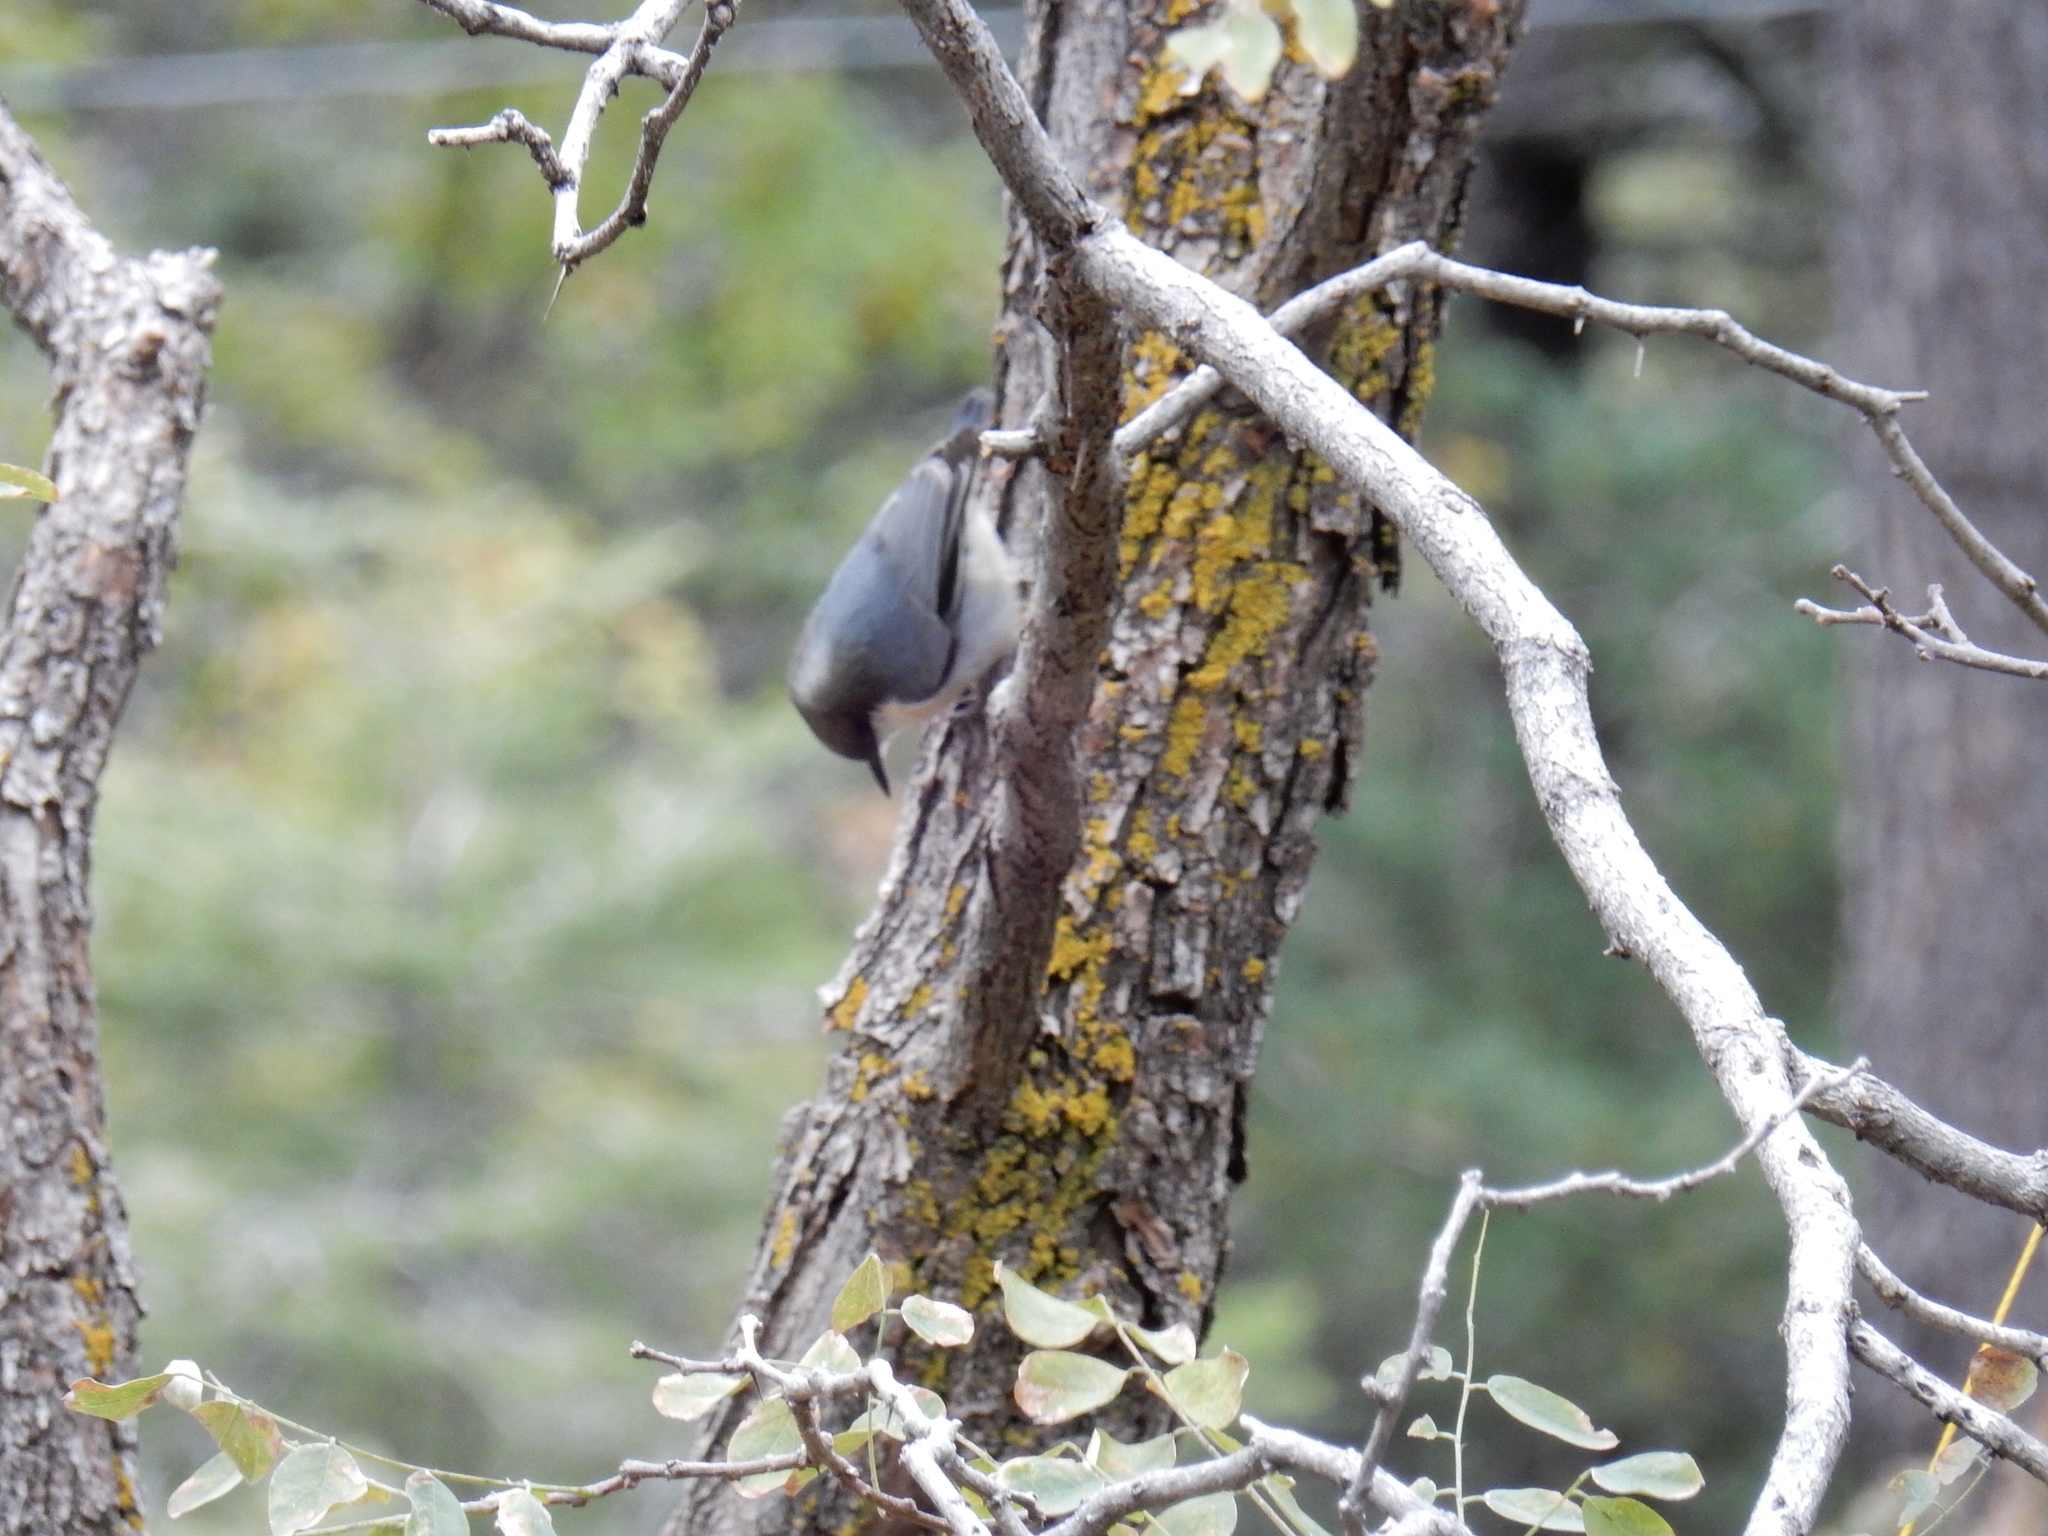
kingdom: Animalia
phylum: Chordata
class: Aves
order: Passeriformes
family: Sittidae
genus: Sitta
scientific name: Sitta carolinensis
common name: White-breasted nuthatch
